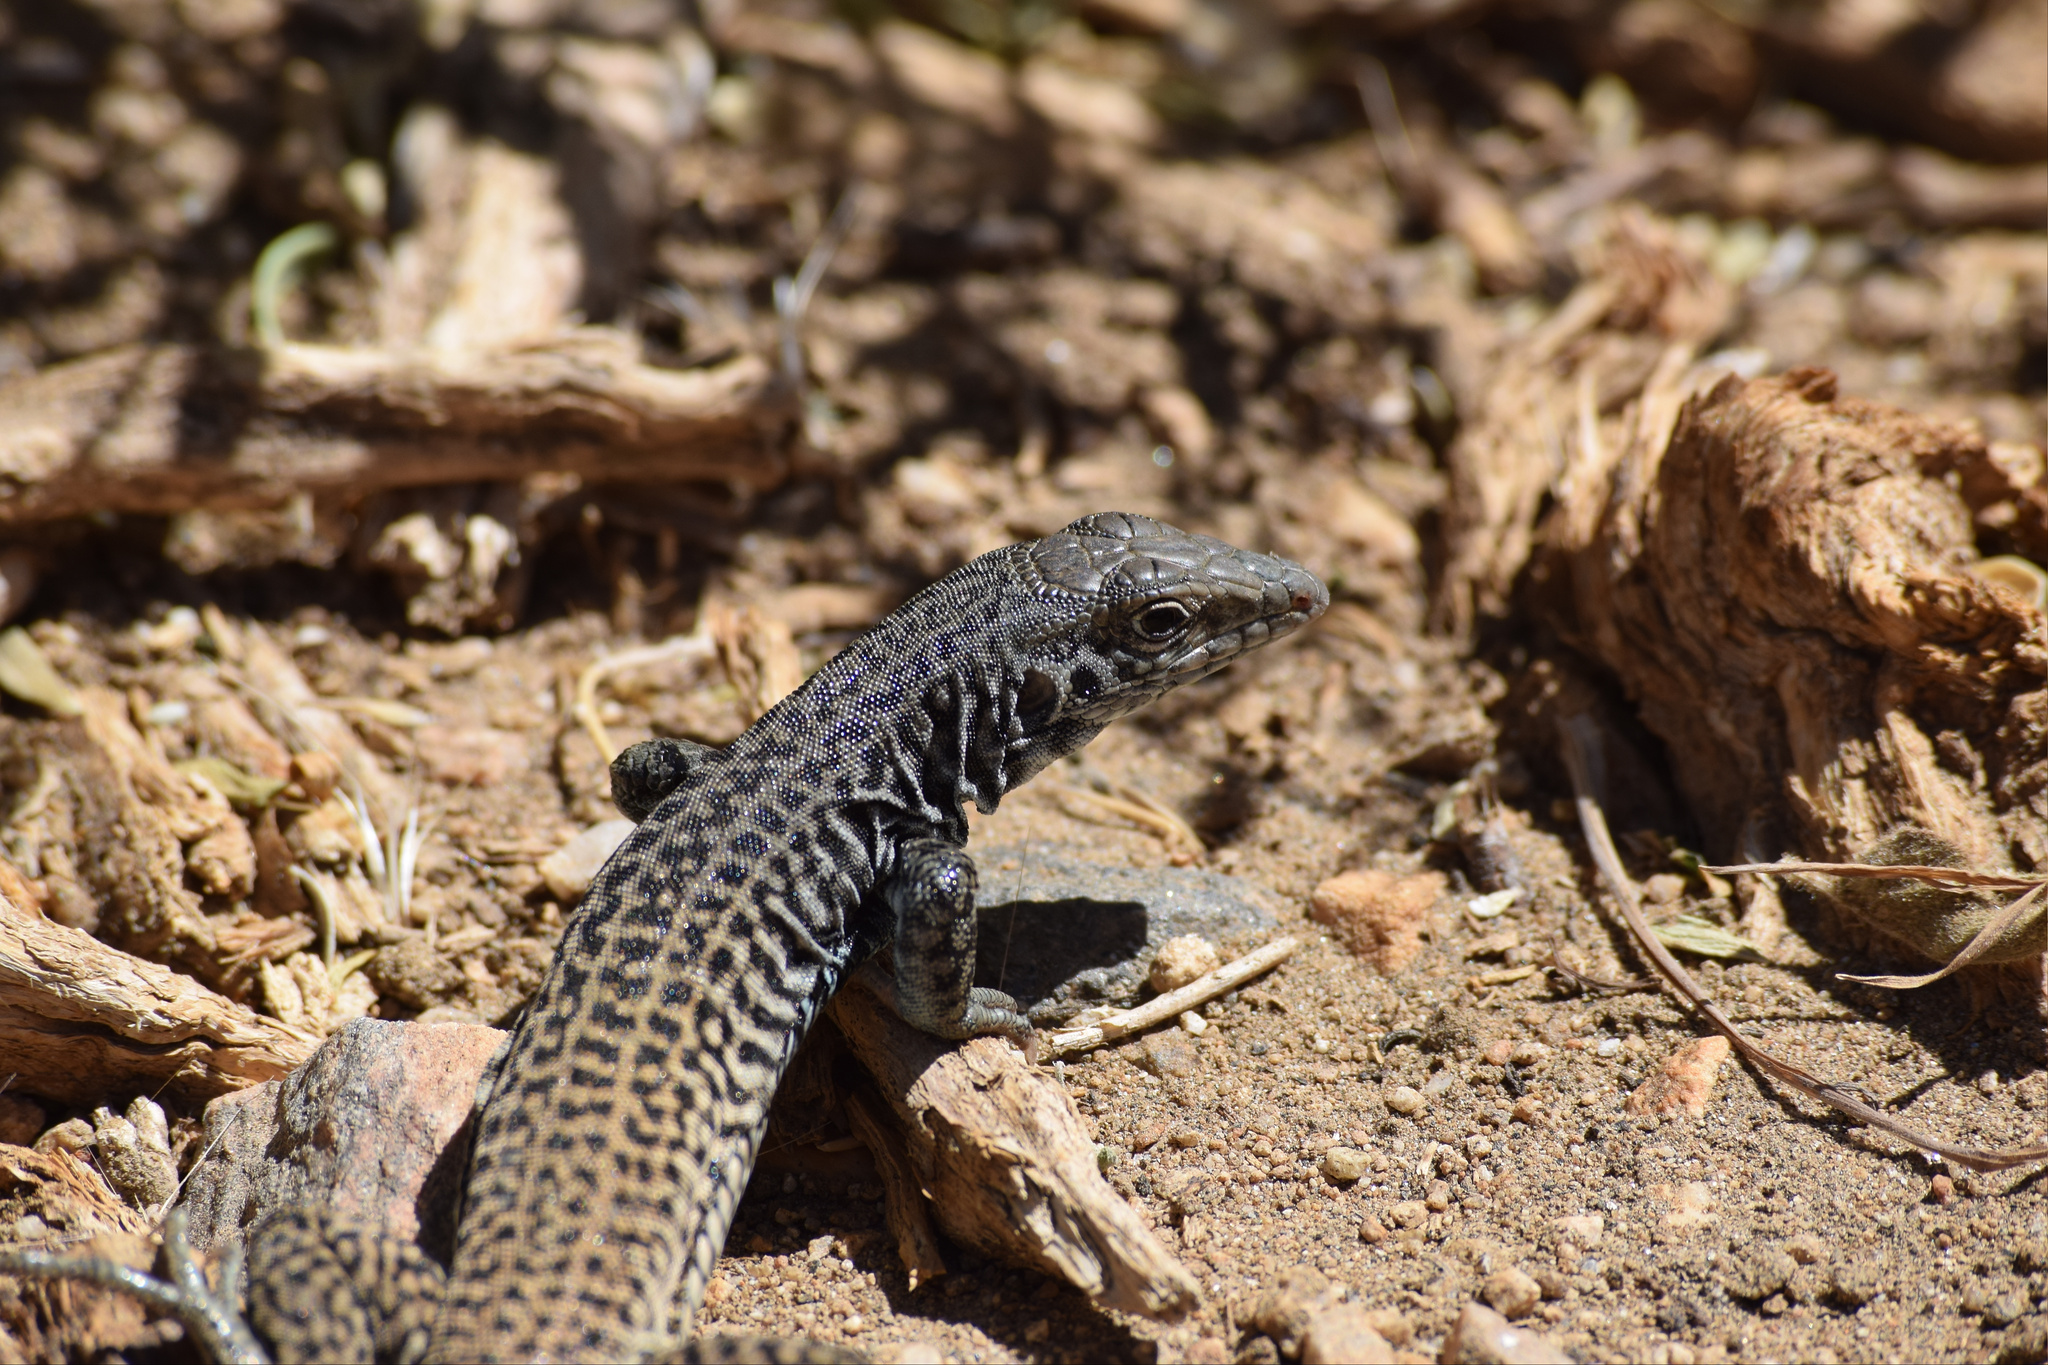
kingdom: Animalia
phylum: Chordata
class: Squamata
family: Teiidae
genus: Aspidoscelis
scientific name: Aspidoscelis tigris
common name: Tiger whiptail
